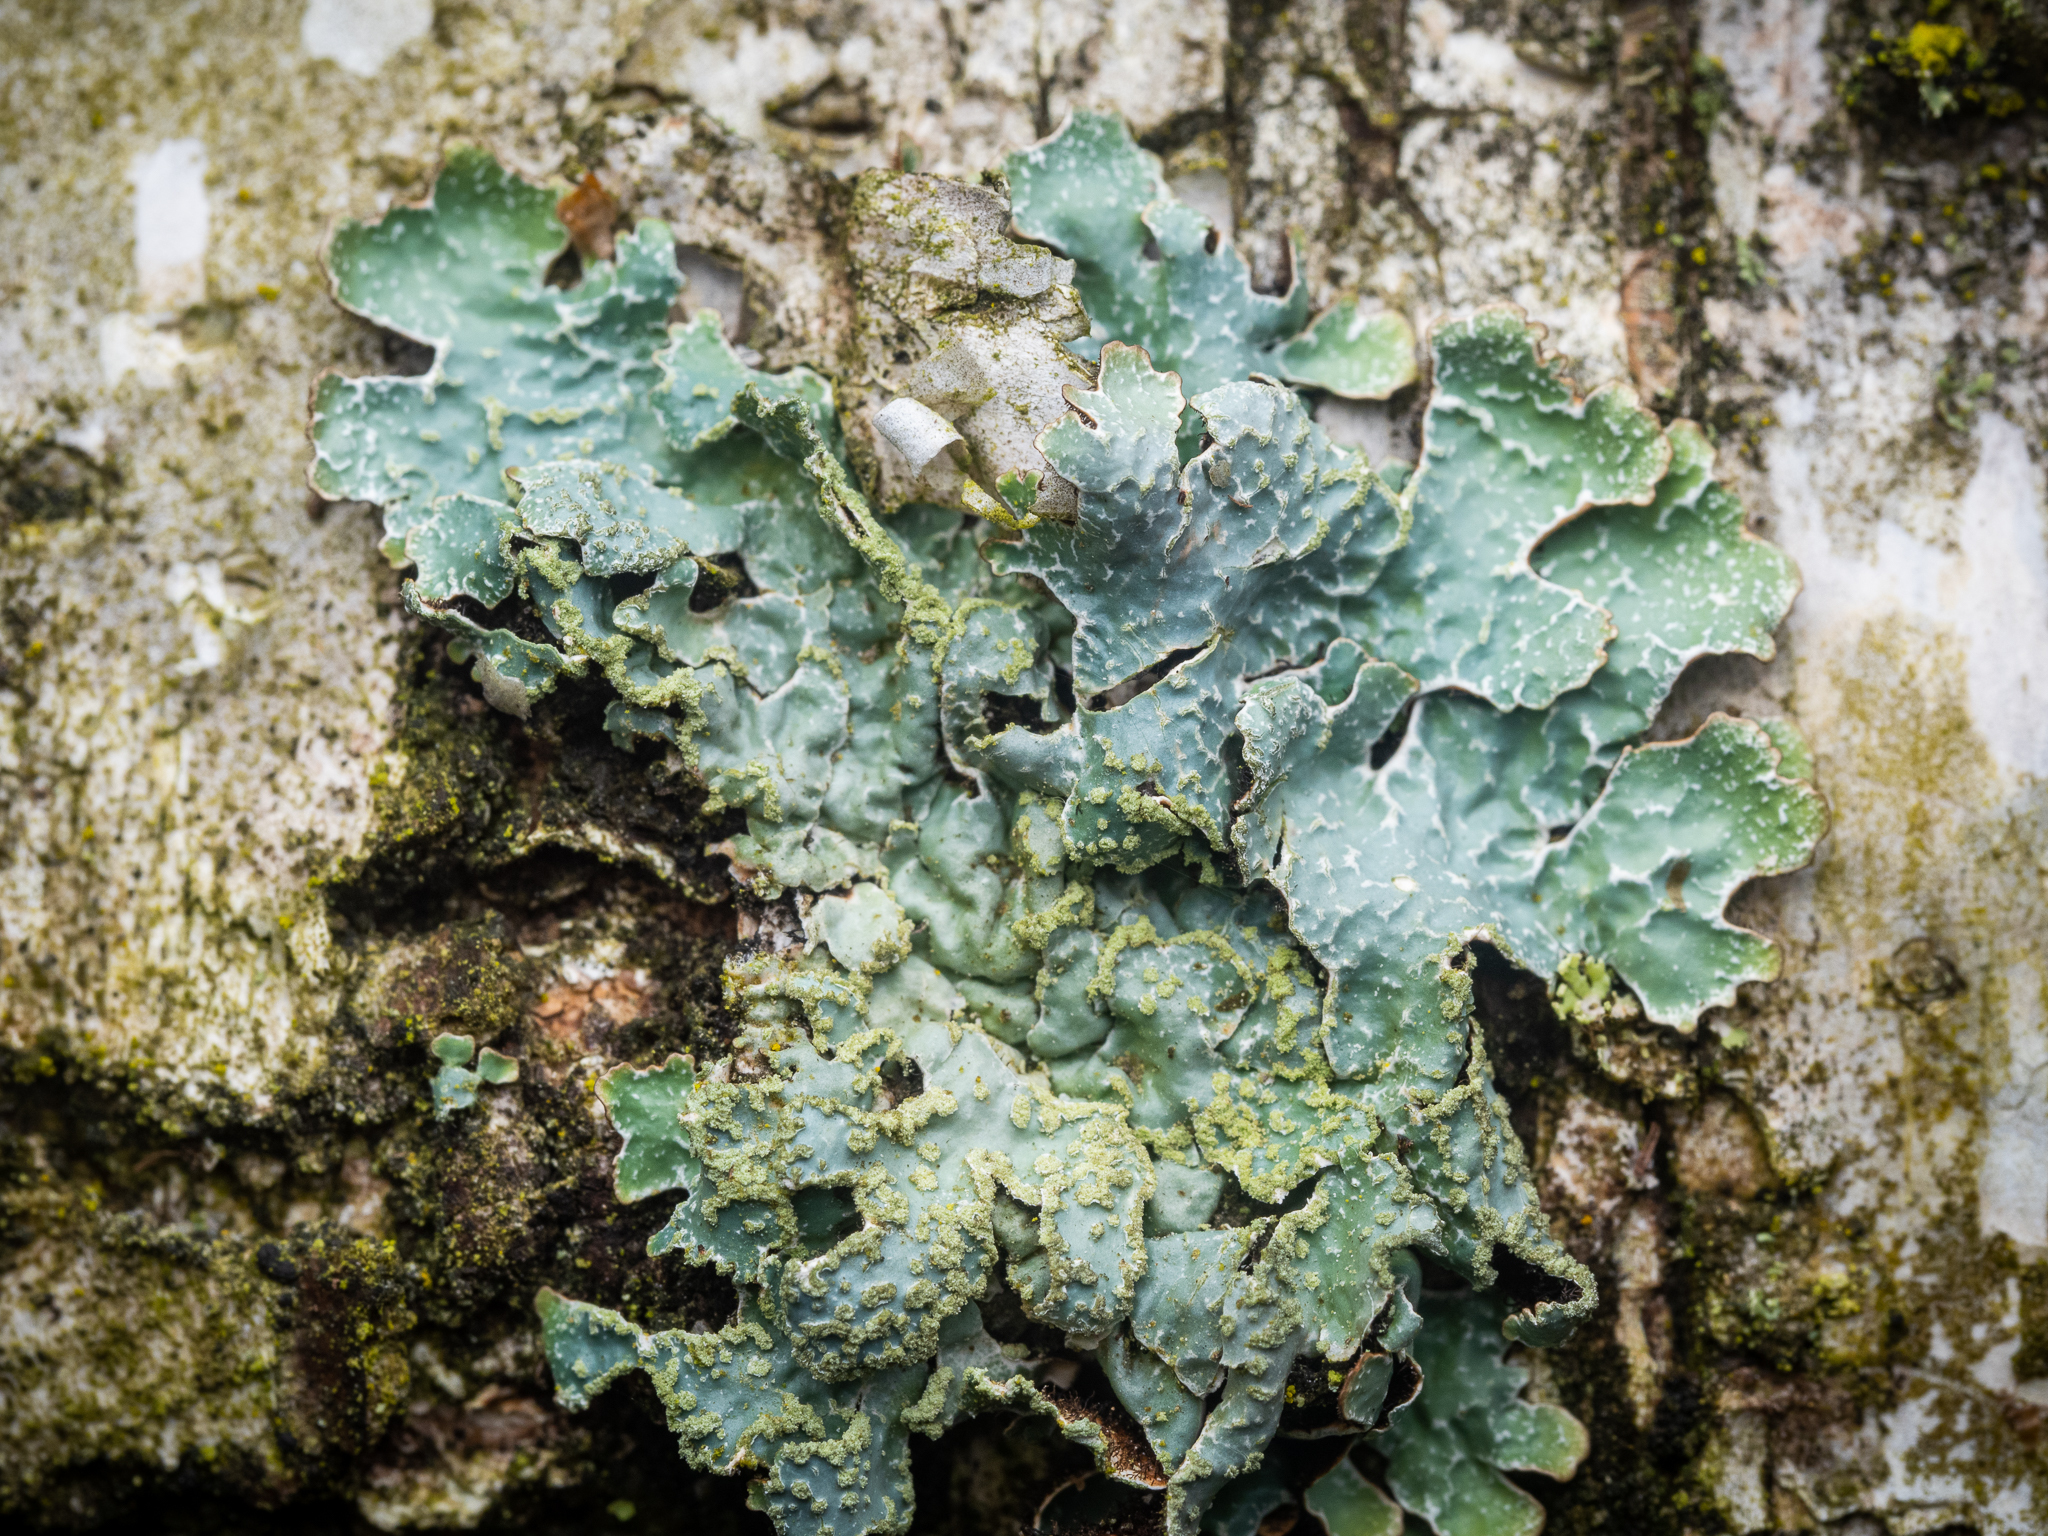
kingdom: Fungi
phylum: Ascomycota
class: Lecanoromycetes
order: Lecanorales
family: Parmeliaceae
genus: Parmelia
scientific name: Parmelia sulcata
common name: Netted shield lichen
